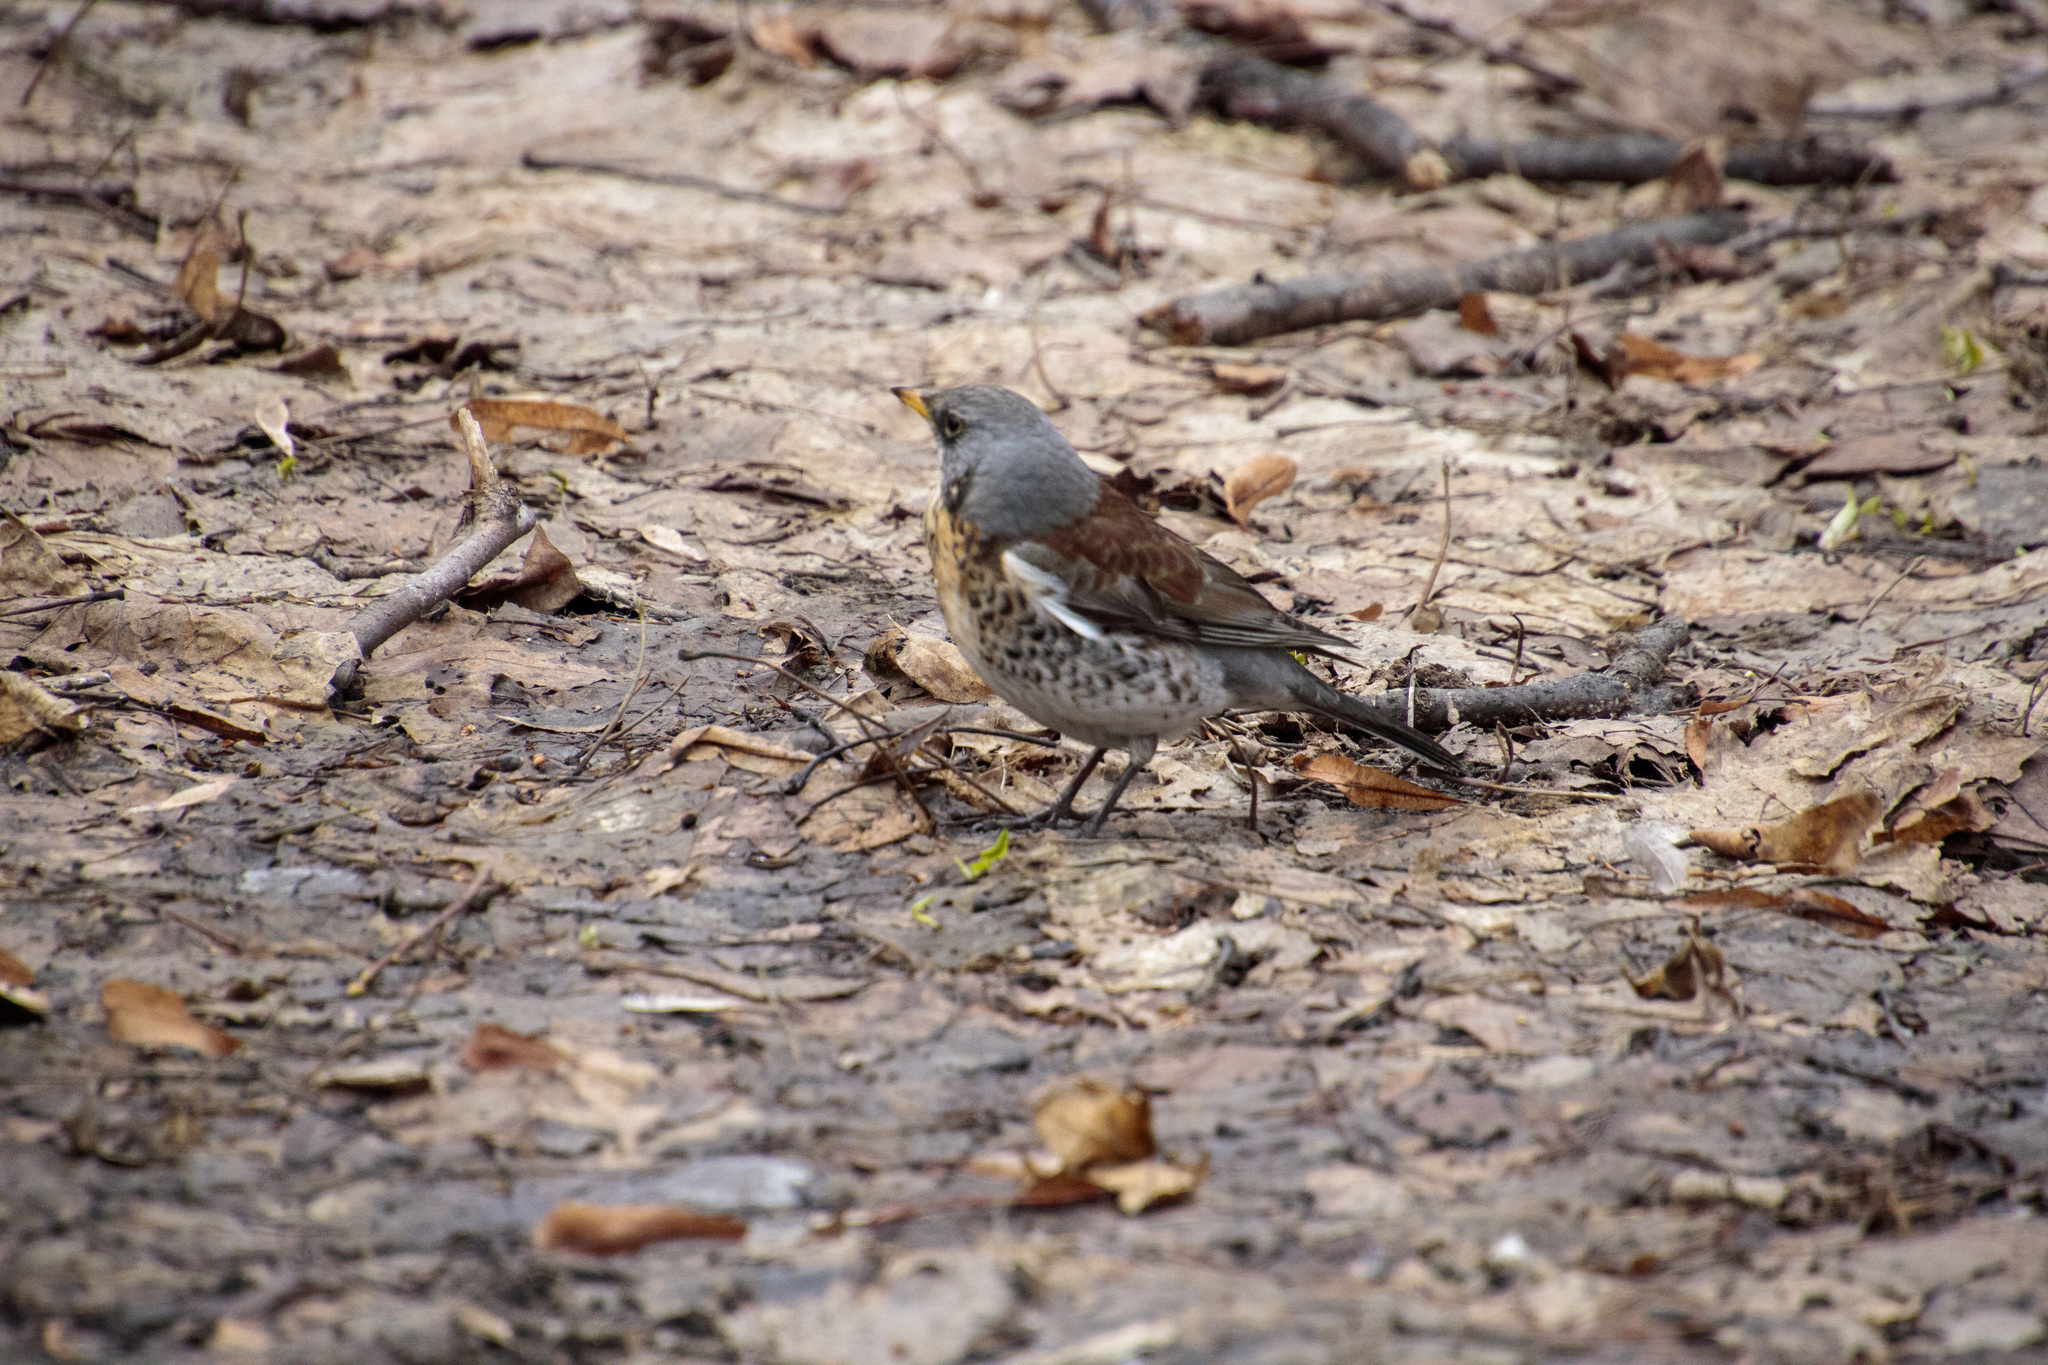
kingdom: Animalia
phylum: Chordata
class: Aves
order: Passeriformes
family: Turdidae
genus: Turdus
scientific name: Turdus pilaris
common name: Fieldfare
